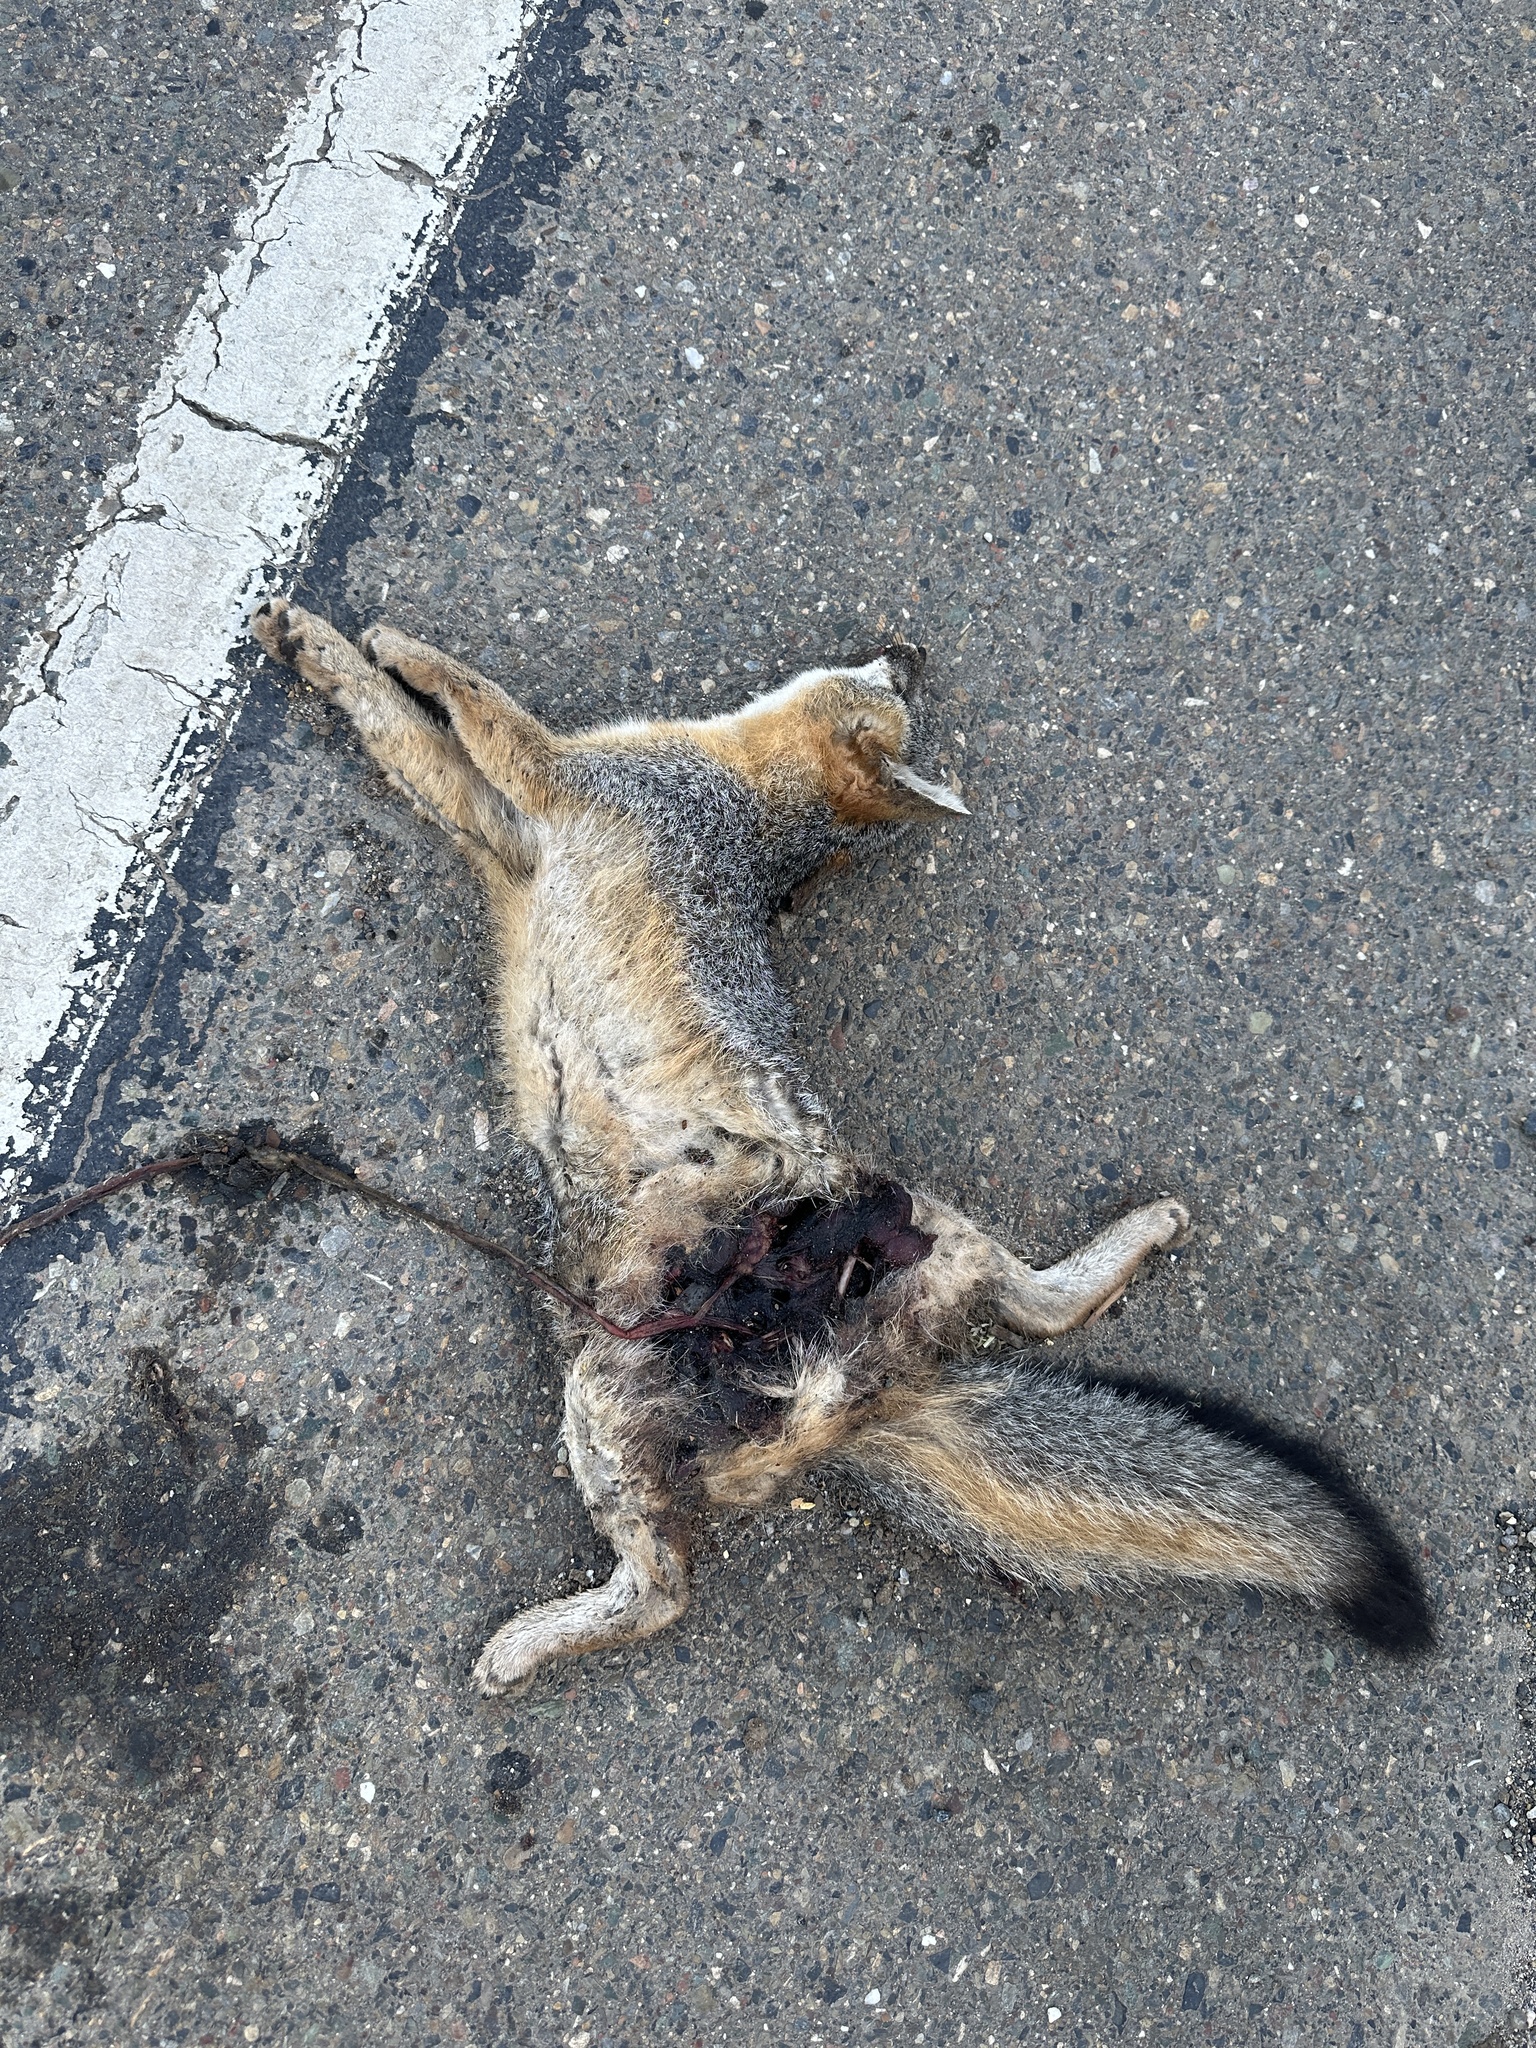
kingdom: Animalia
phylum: Chordata
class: Mammalia
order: Carnivora
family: Canidae
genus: Urocyon
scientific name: Urocyon cinereoargenteus
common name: Gray fox
